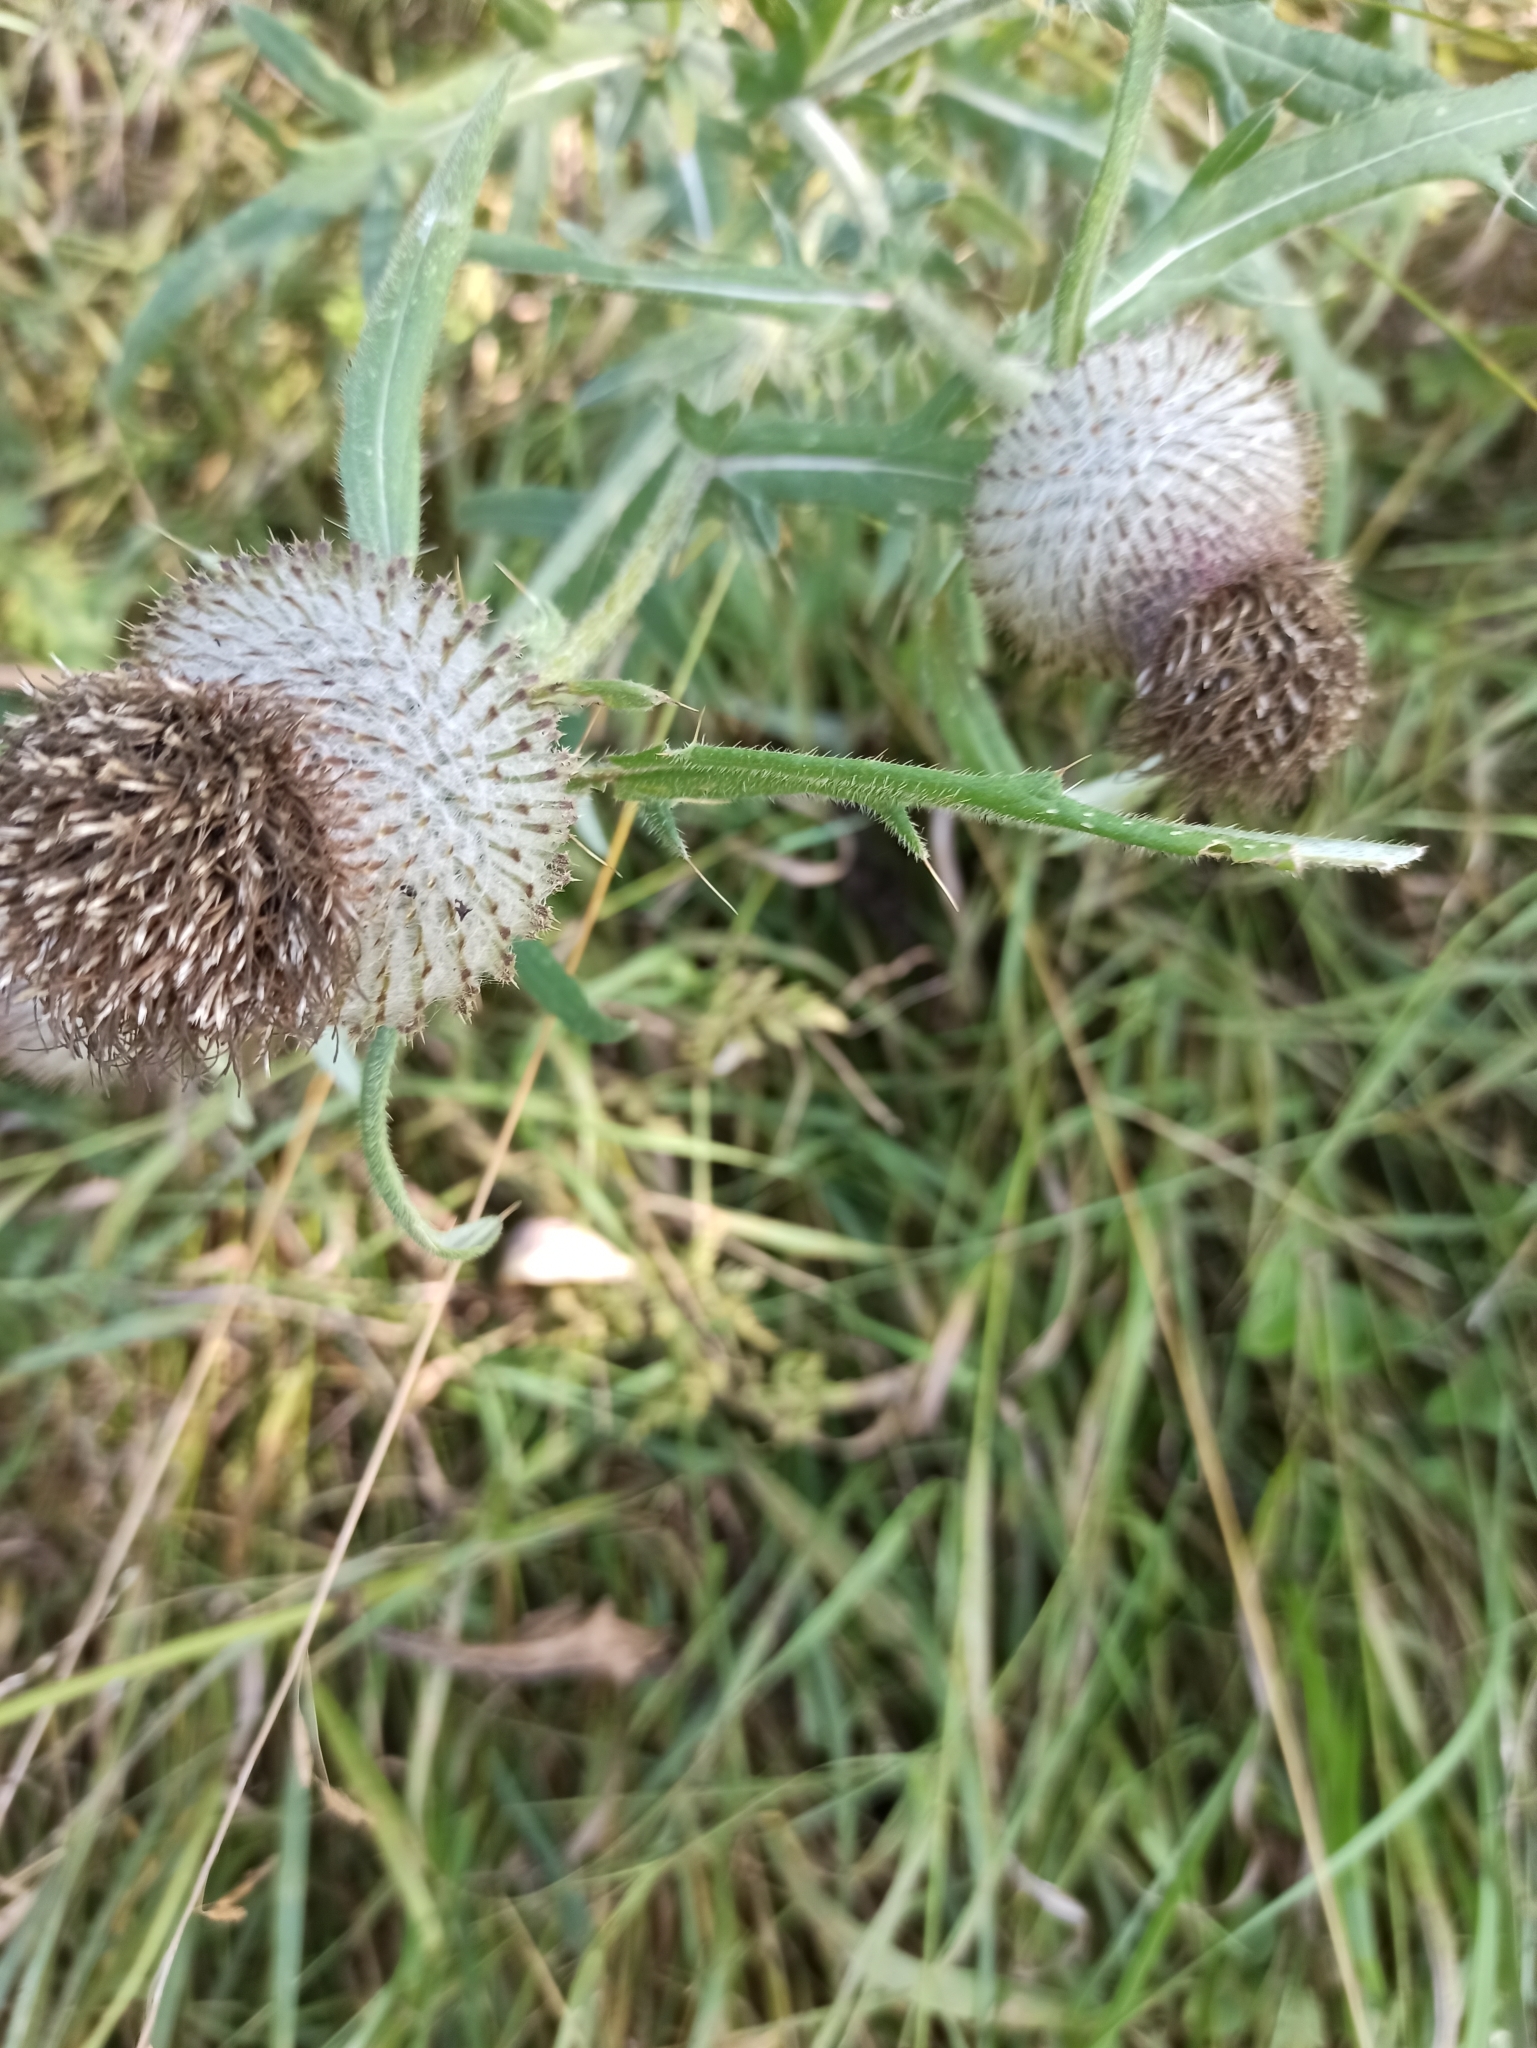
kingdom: Plantae
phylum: Tracheophyta
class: Magnoliopsida
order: Asterales
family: Asteraceae
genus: Lophiolepis
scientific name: Lophiolepis decussata
